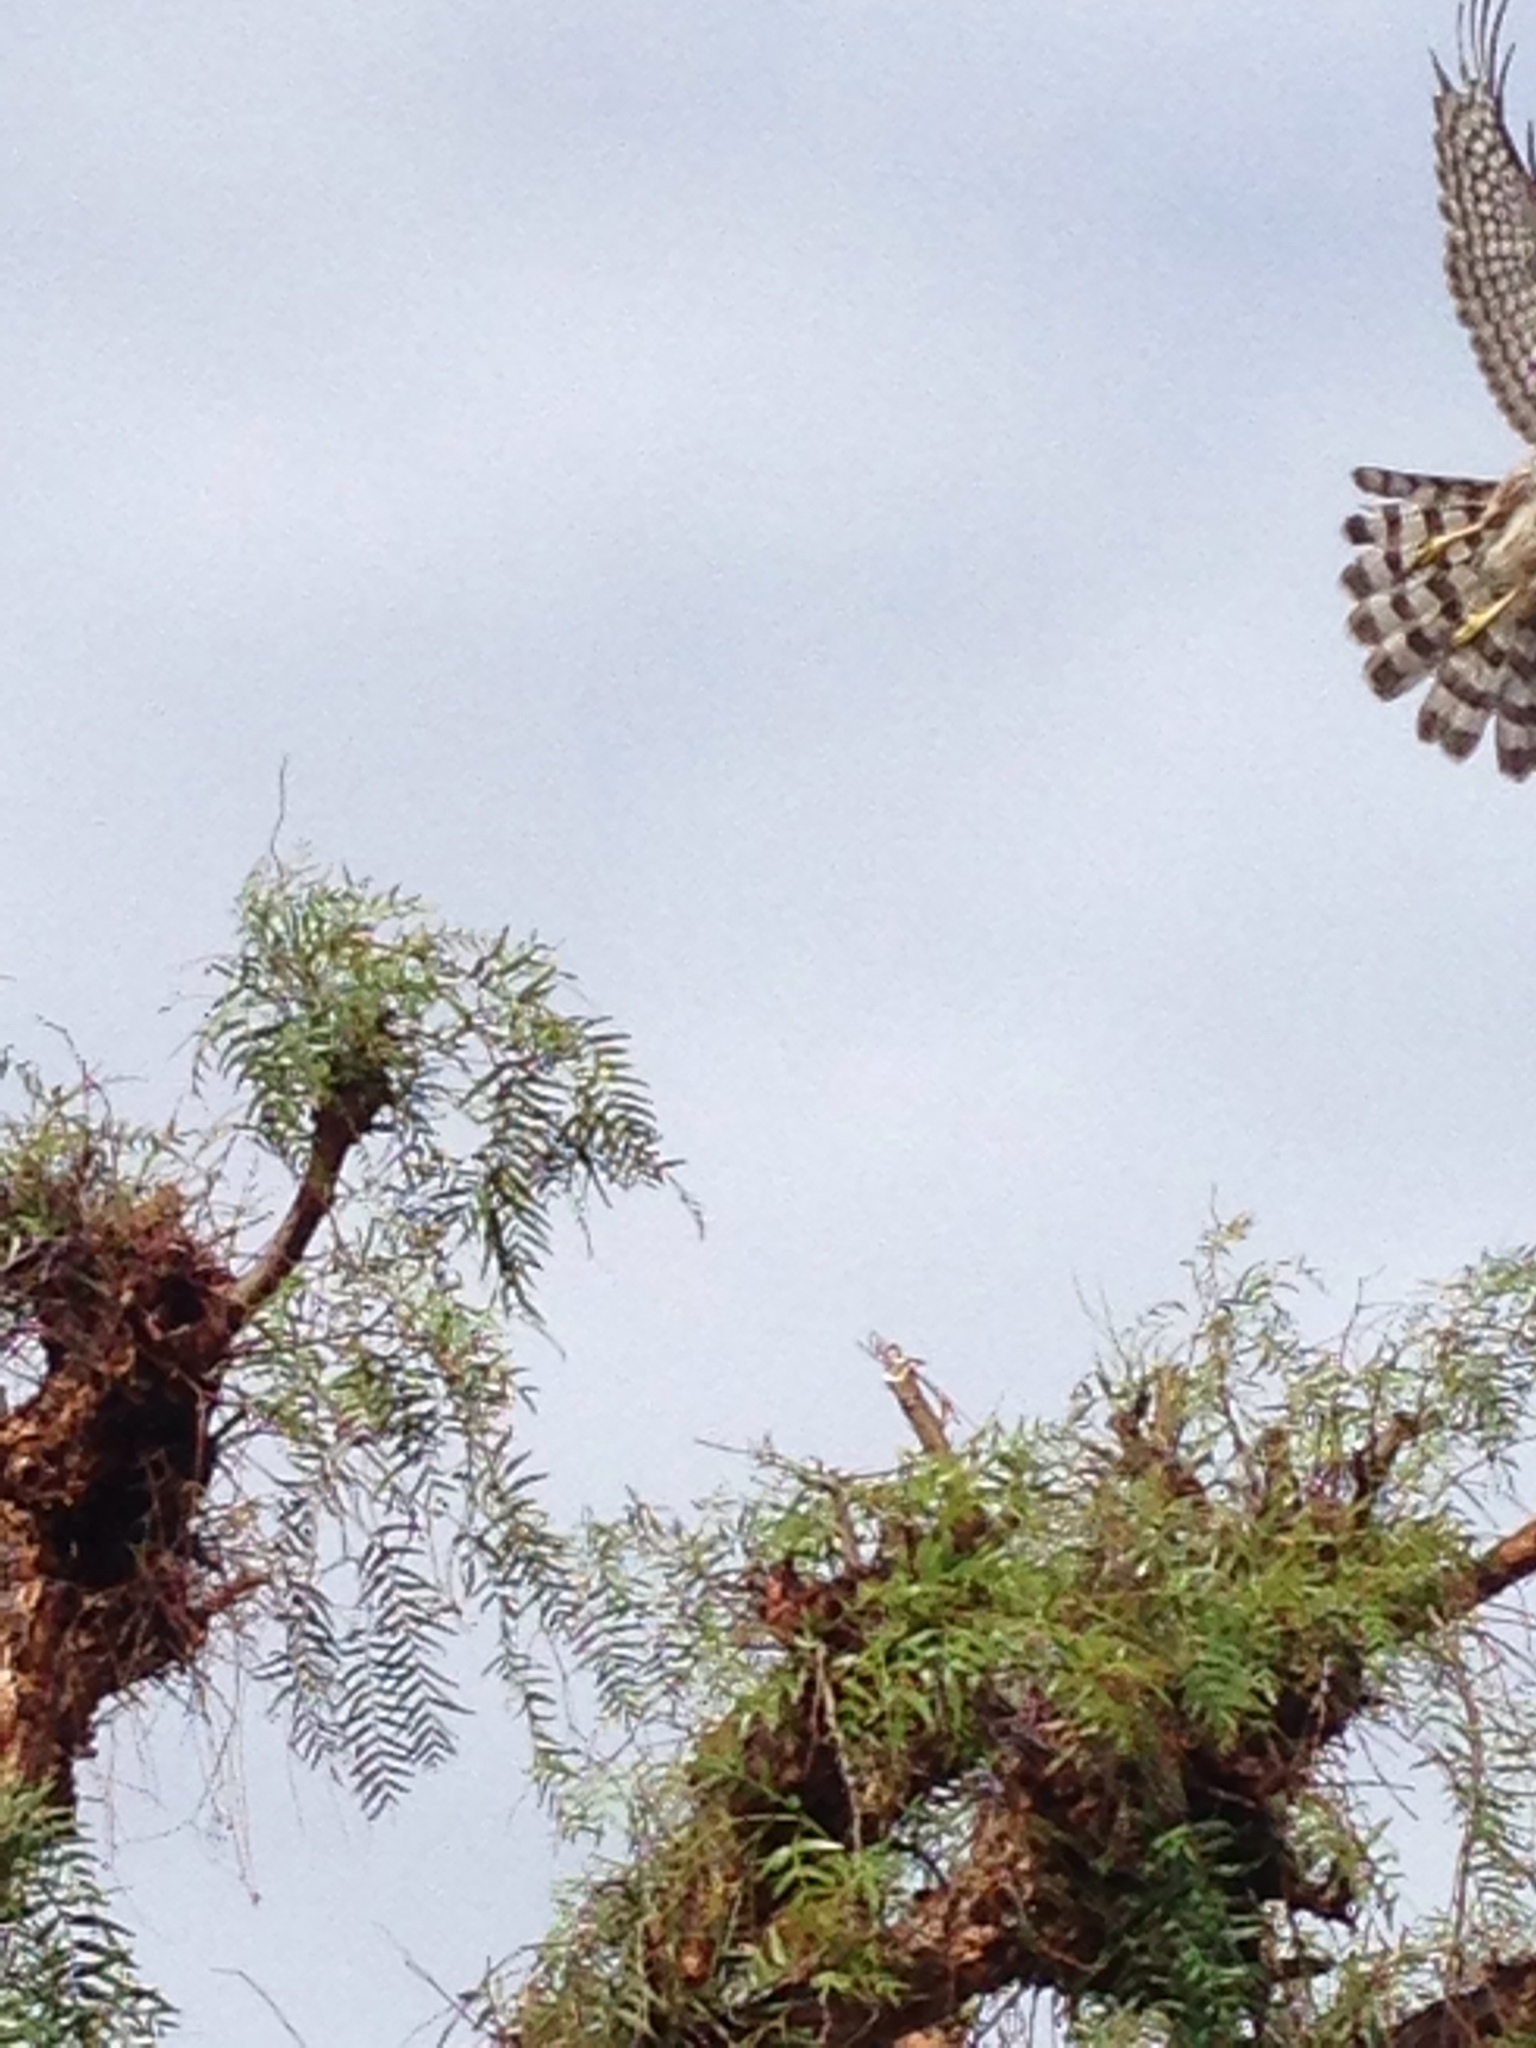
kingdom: Animalia
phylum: Chordata
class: Aves
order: Accipitriformes
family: Accipitridae
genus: Accipiter
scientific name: Accipiter cooperii
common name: Cooper's hawk
